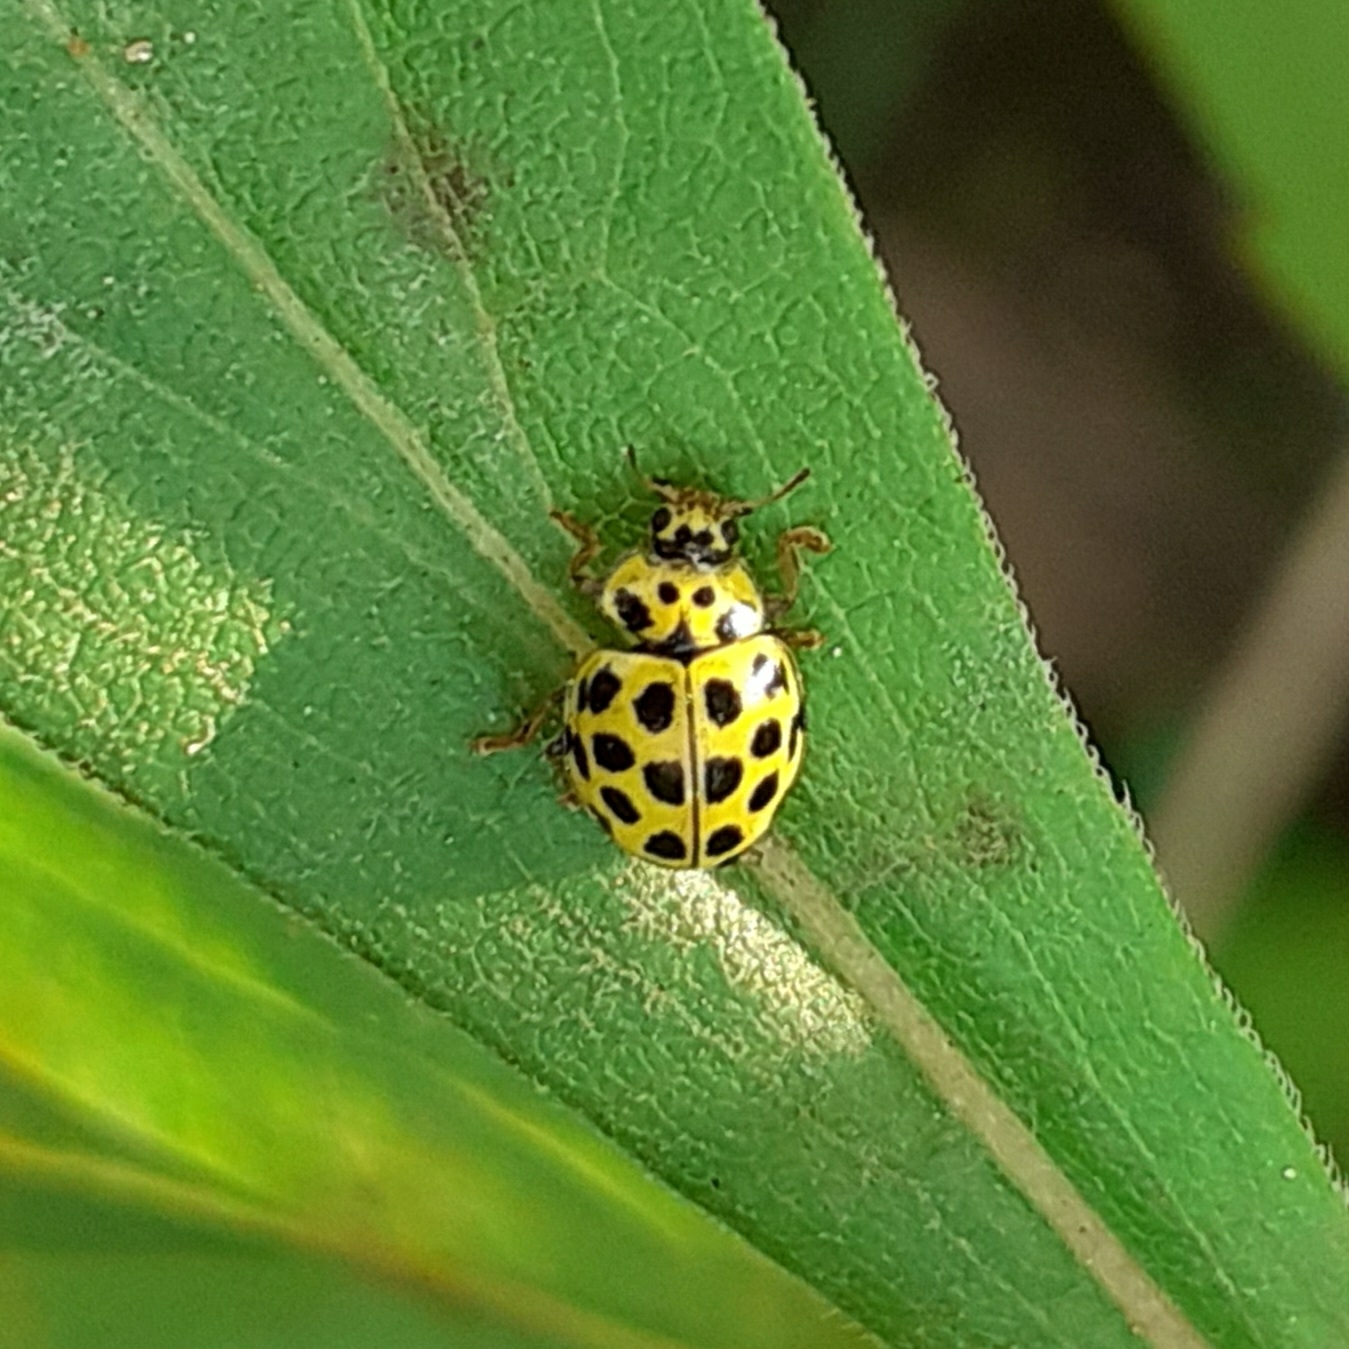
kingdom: Animalia
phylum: Arthropoda
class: Insecta
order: Coleoptera
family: Coccinellidae
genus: Psyllobora
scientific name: Psyllobora vigintiduopunctata
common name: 22-spot ladybird
